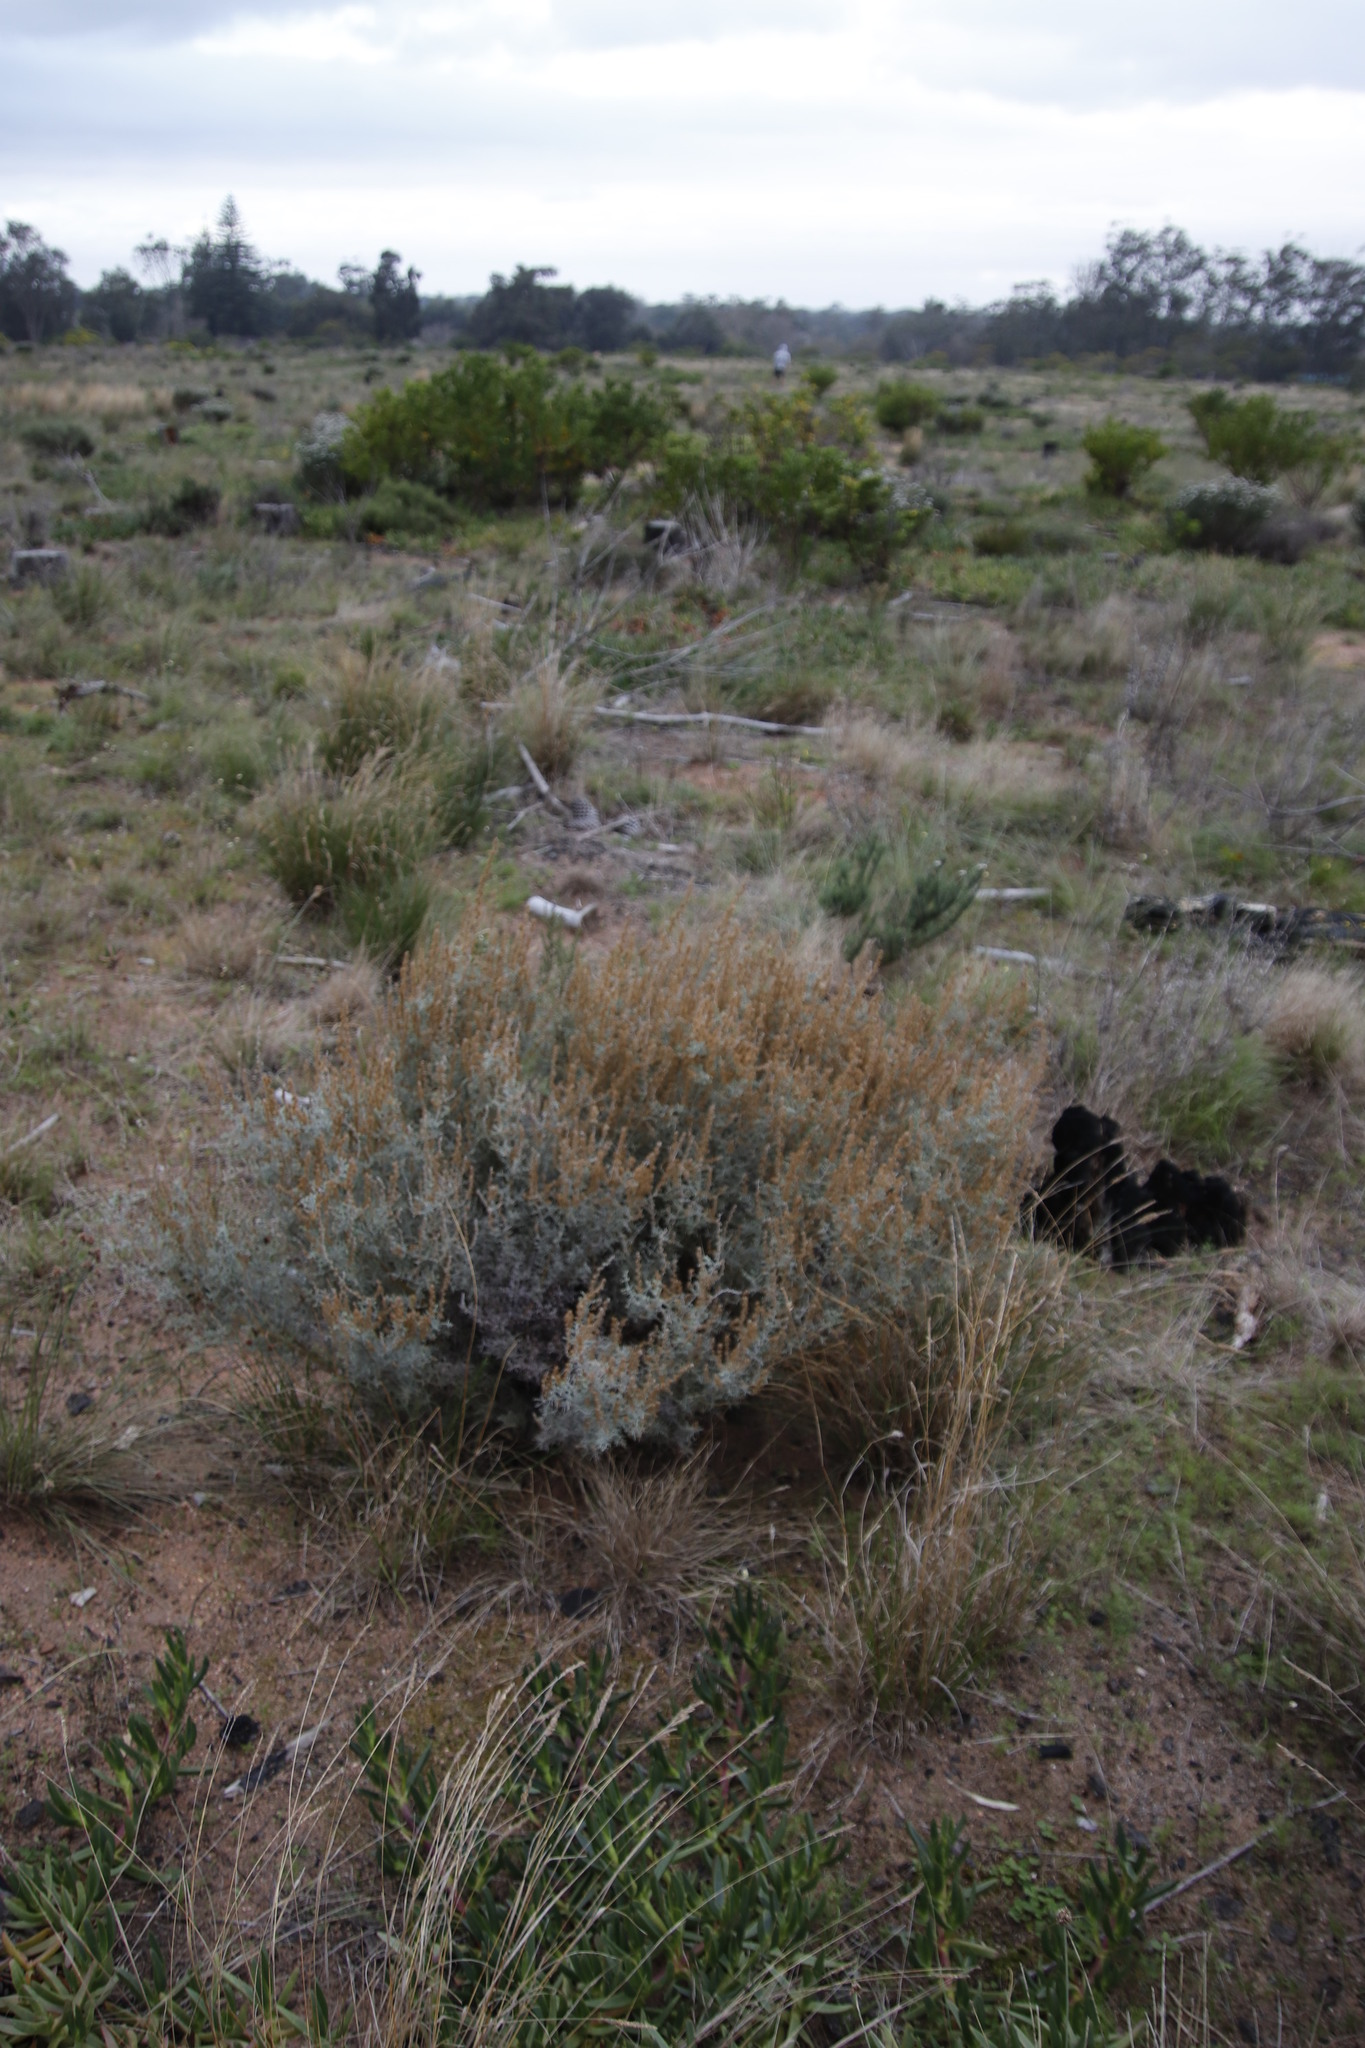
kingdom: Plantae
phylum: Tracheophyta
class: Magnoliopsida
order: Asterales
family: Asteraceae
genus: Seriphium
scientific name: Seriphium plumosum
